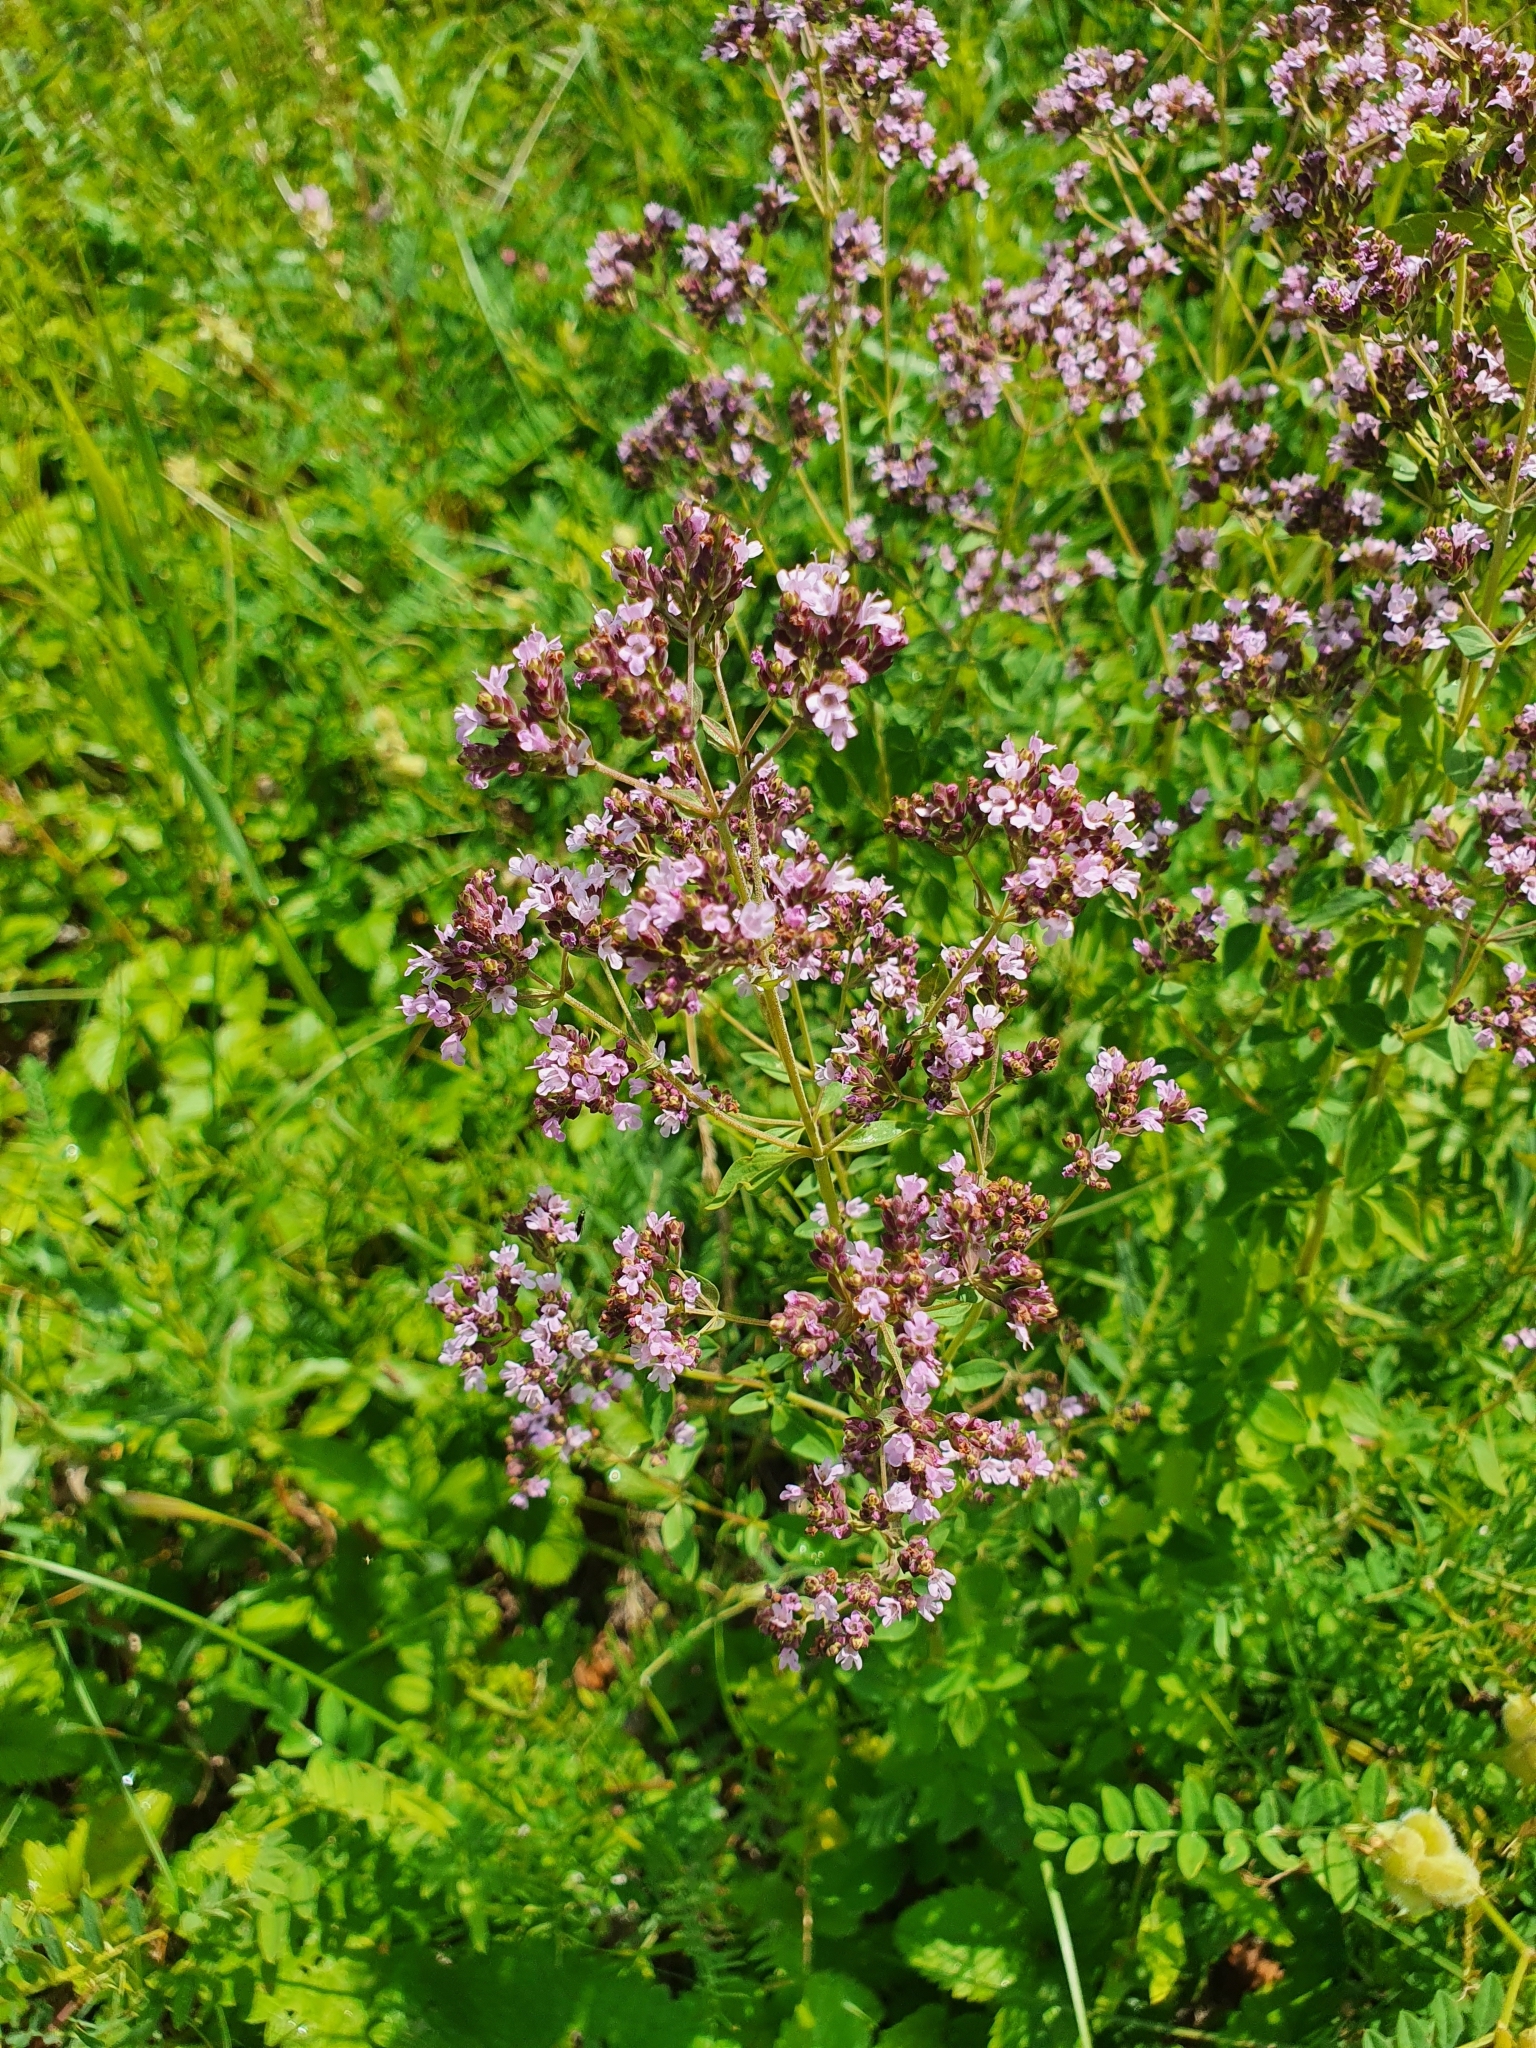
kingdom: Plantae
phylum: Tracheophyta
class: Magnoliopsida
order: Lamiales
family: Lamiaceae
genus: Origanum
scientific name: Origanum vulgare
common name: Wild marjoram
